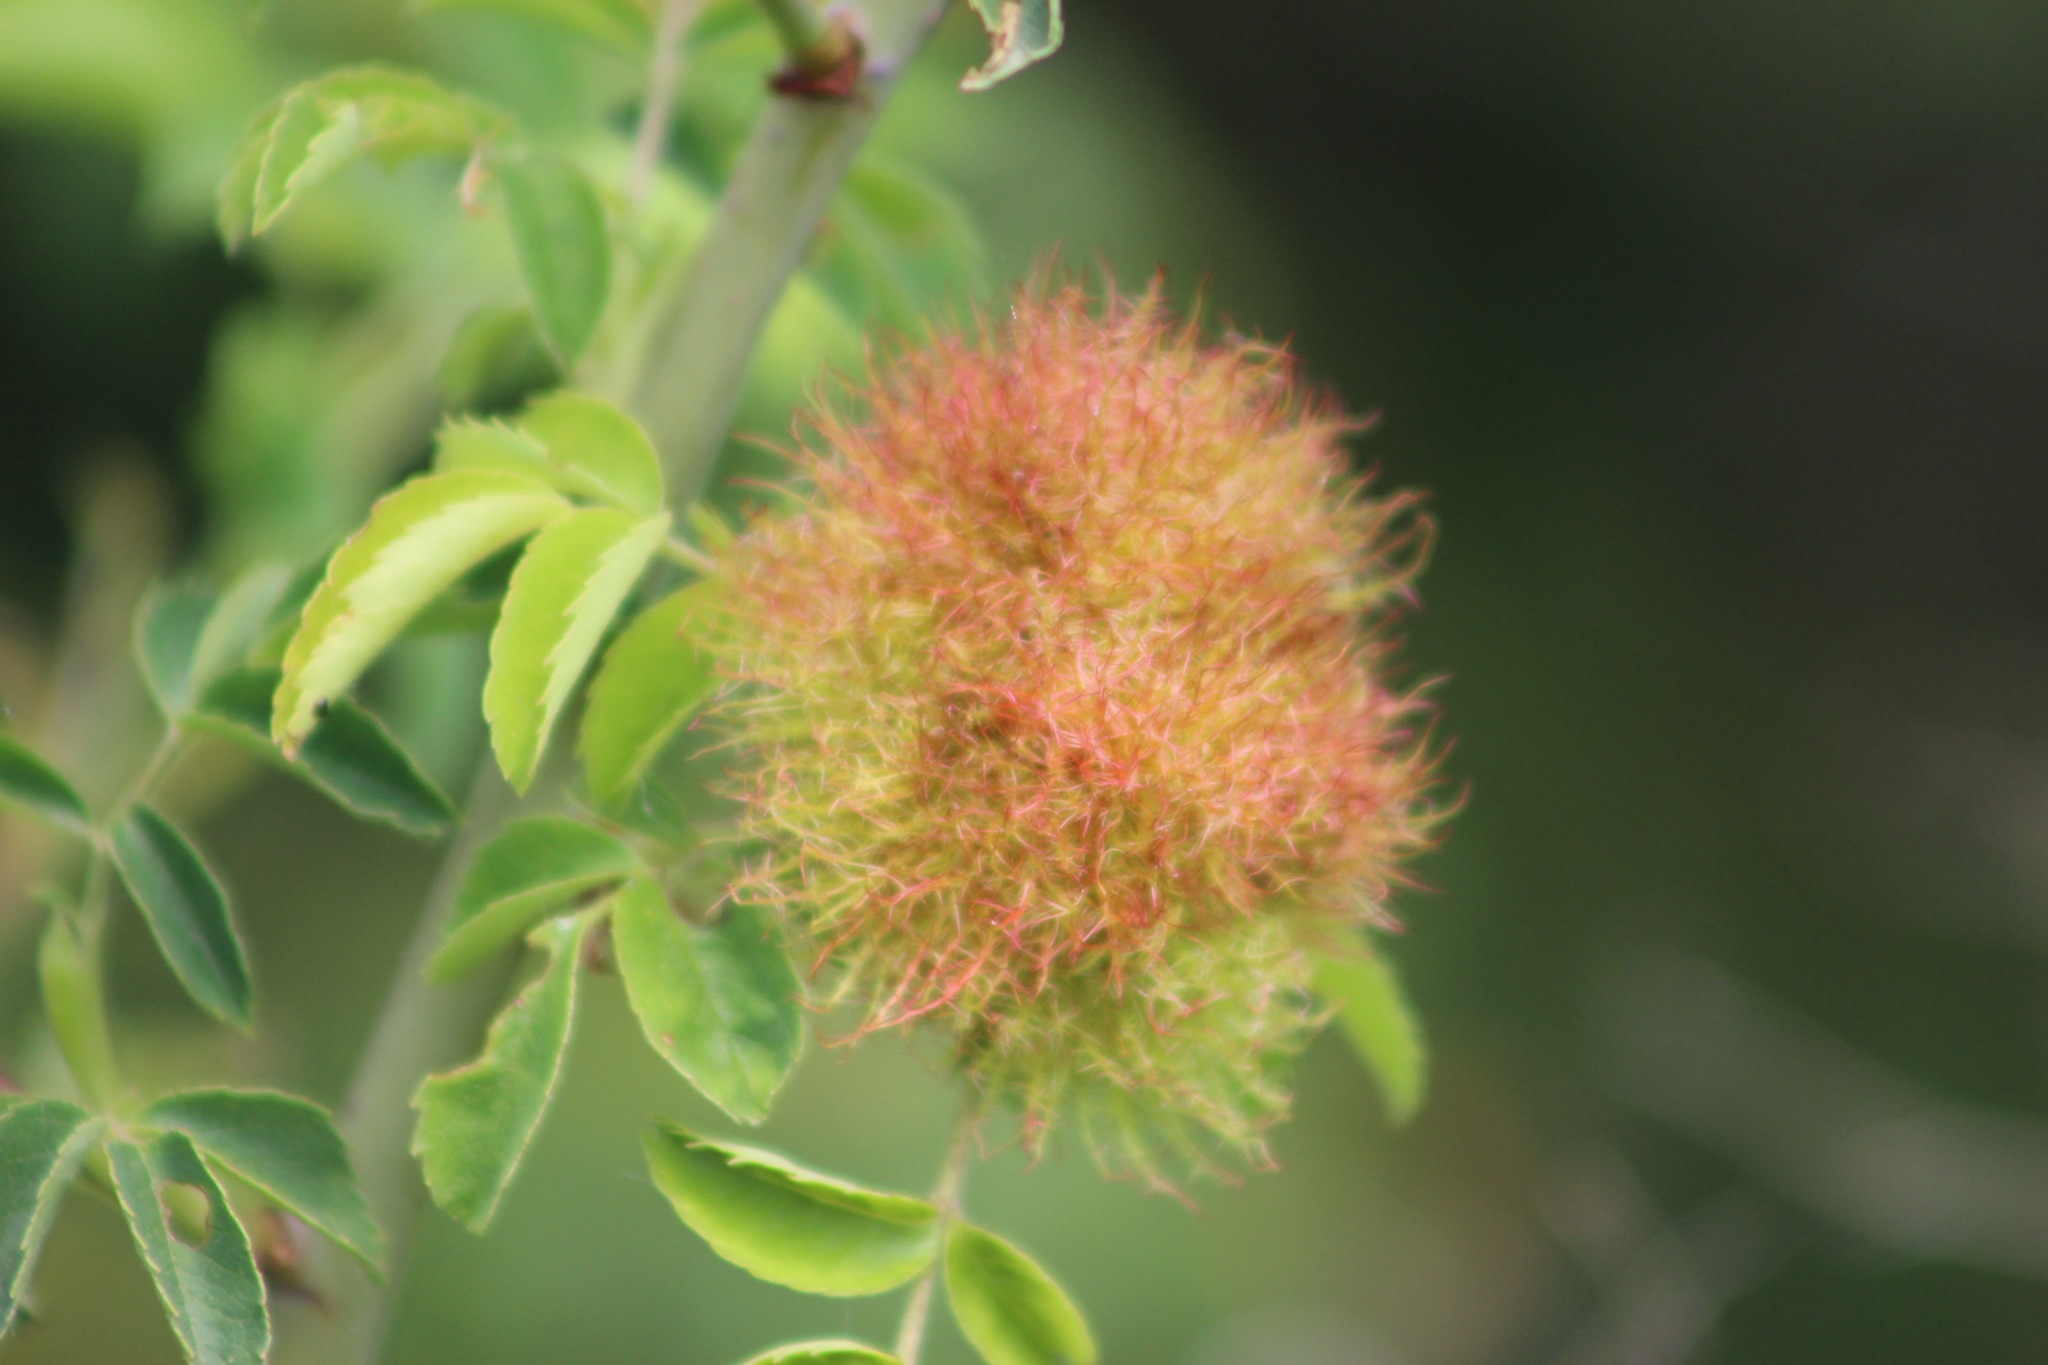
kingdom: Animalia
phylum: Arthropoda
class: Insecta
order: Hymenoptera
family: Cynipidae
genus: Diplolepis
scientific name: Diplolepis rosae
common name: Bedeguar gall
